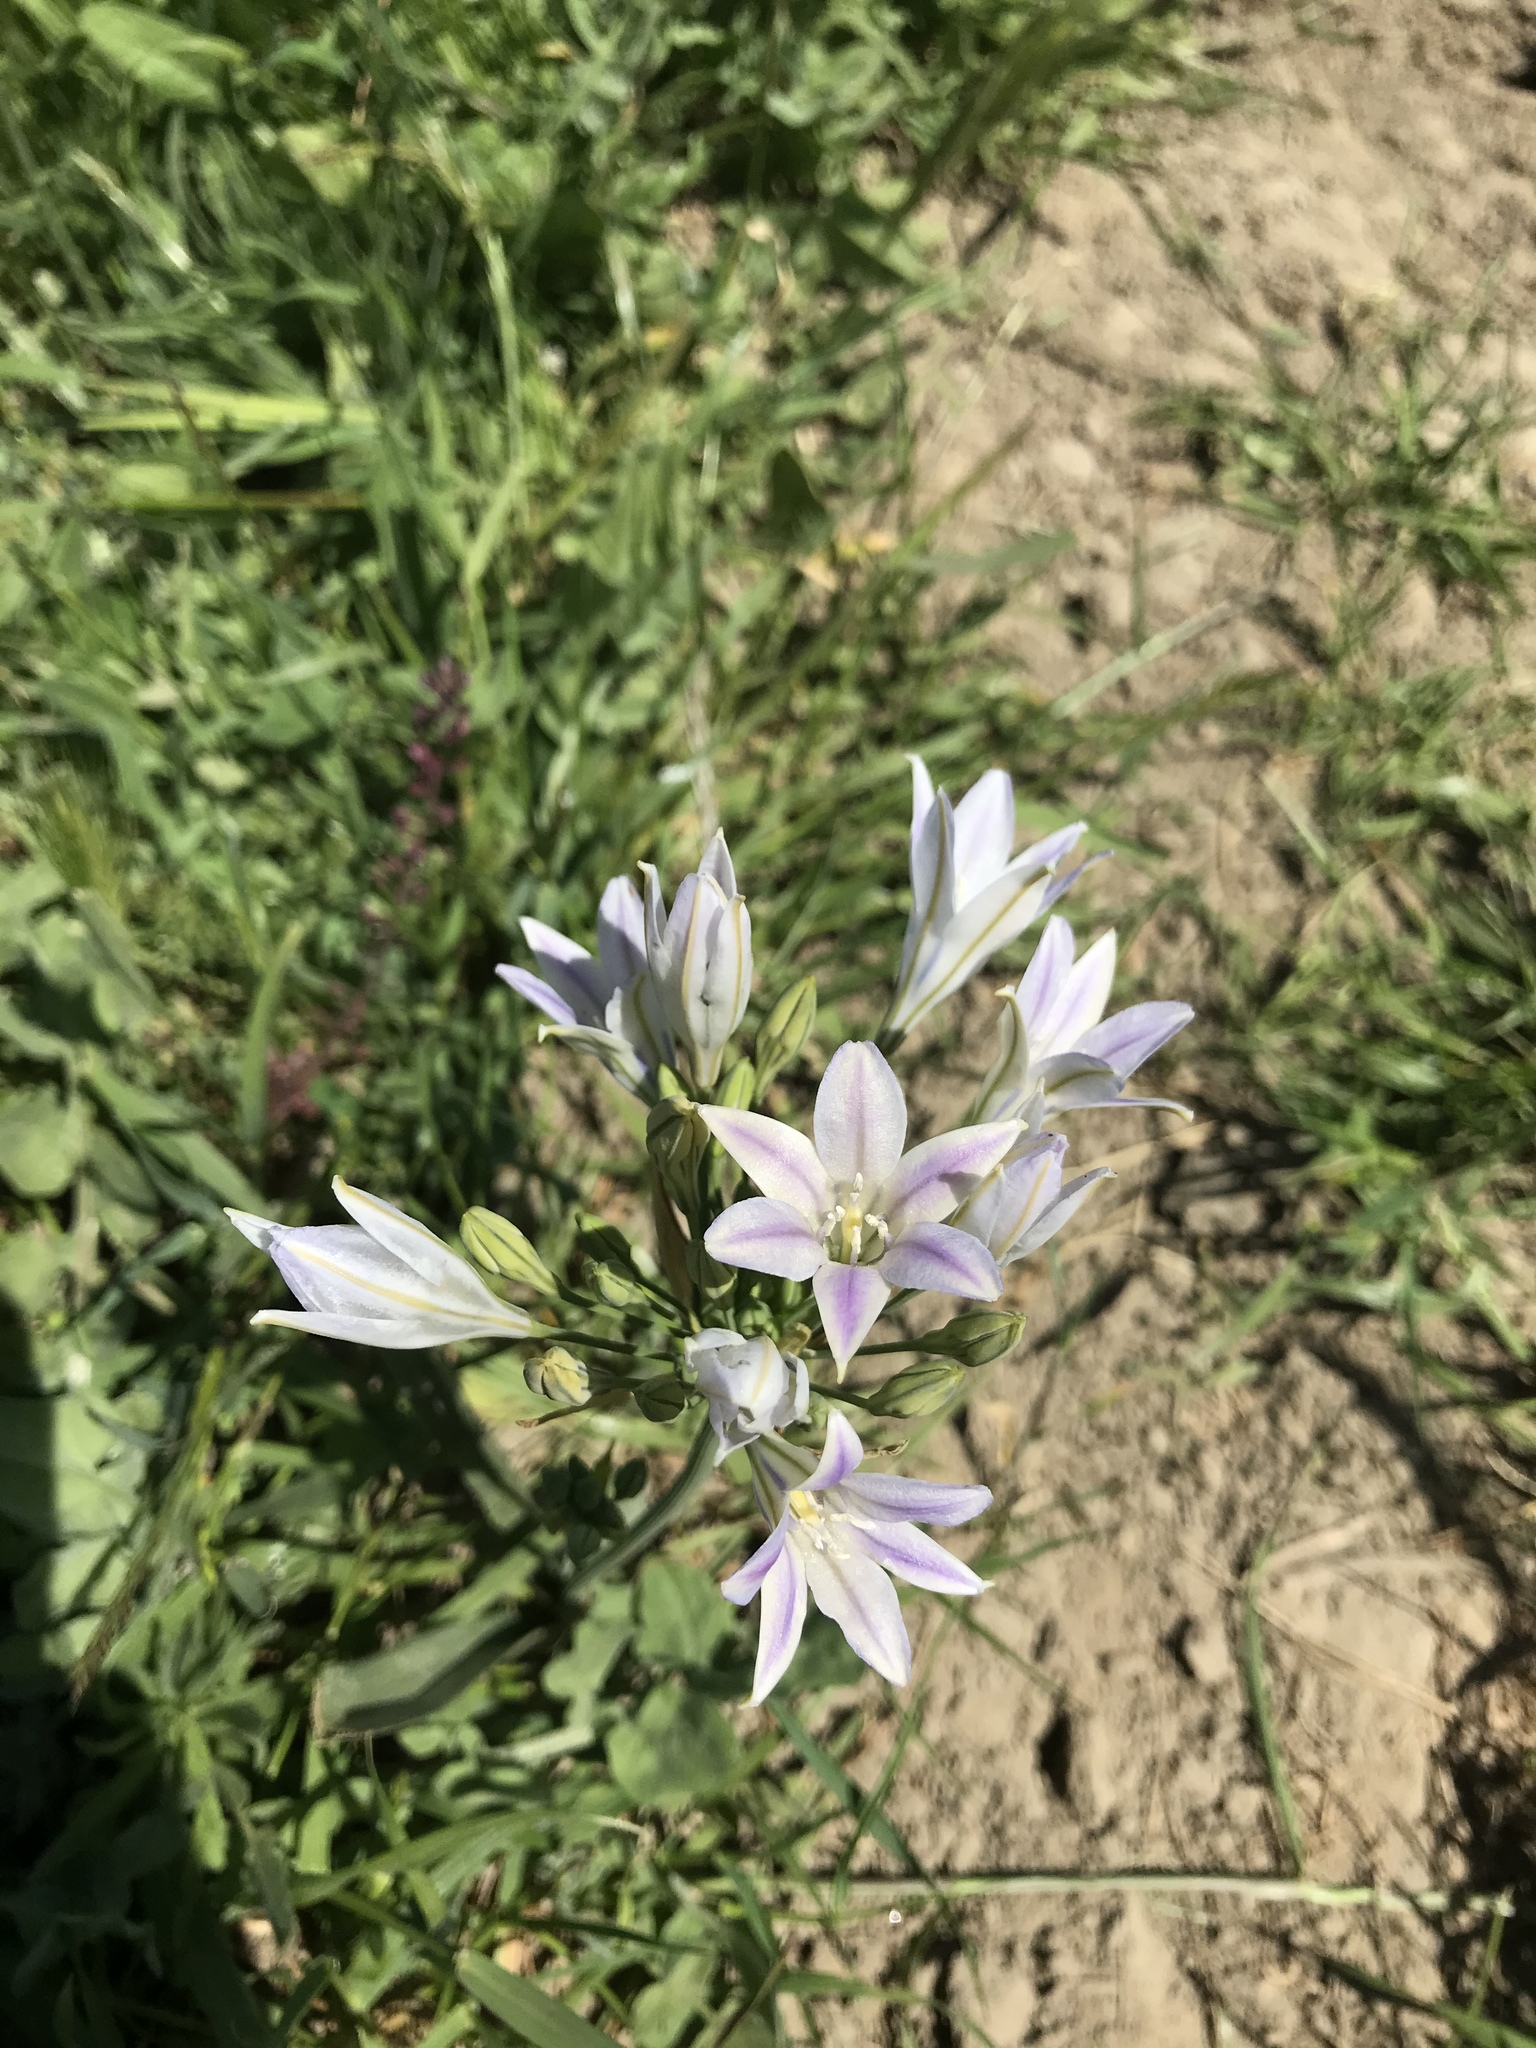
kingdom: Plantae
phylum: Tracheophyta
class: Liliopsida
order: Asparagales
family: Asparagaceae
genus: Triteleia
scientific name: Triteleia laxa
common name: Triplet-lily
